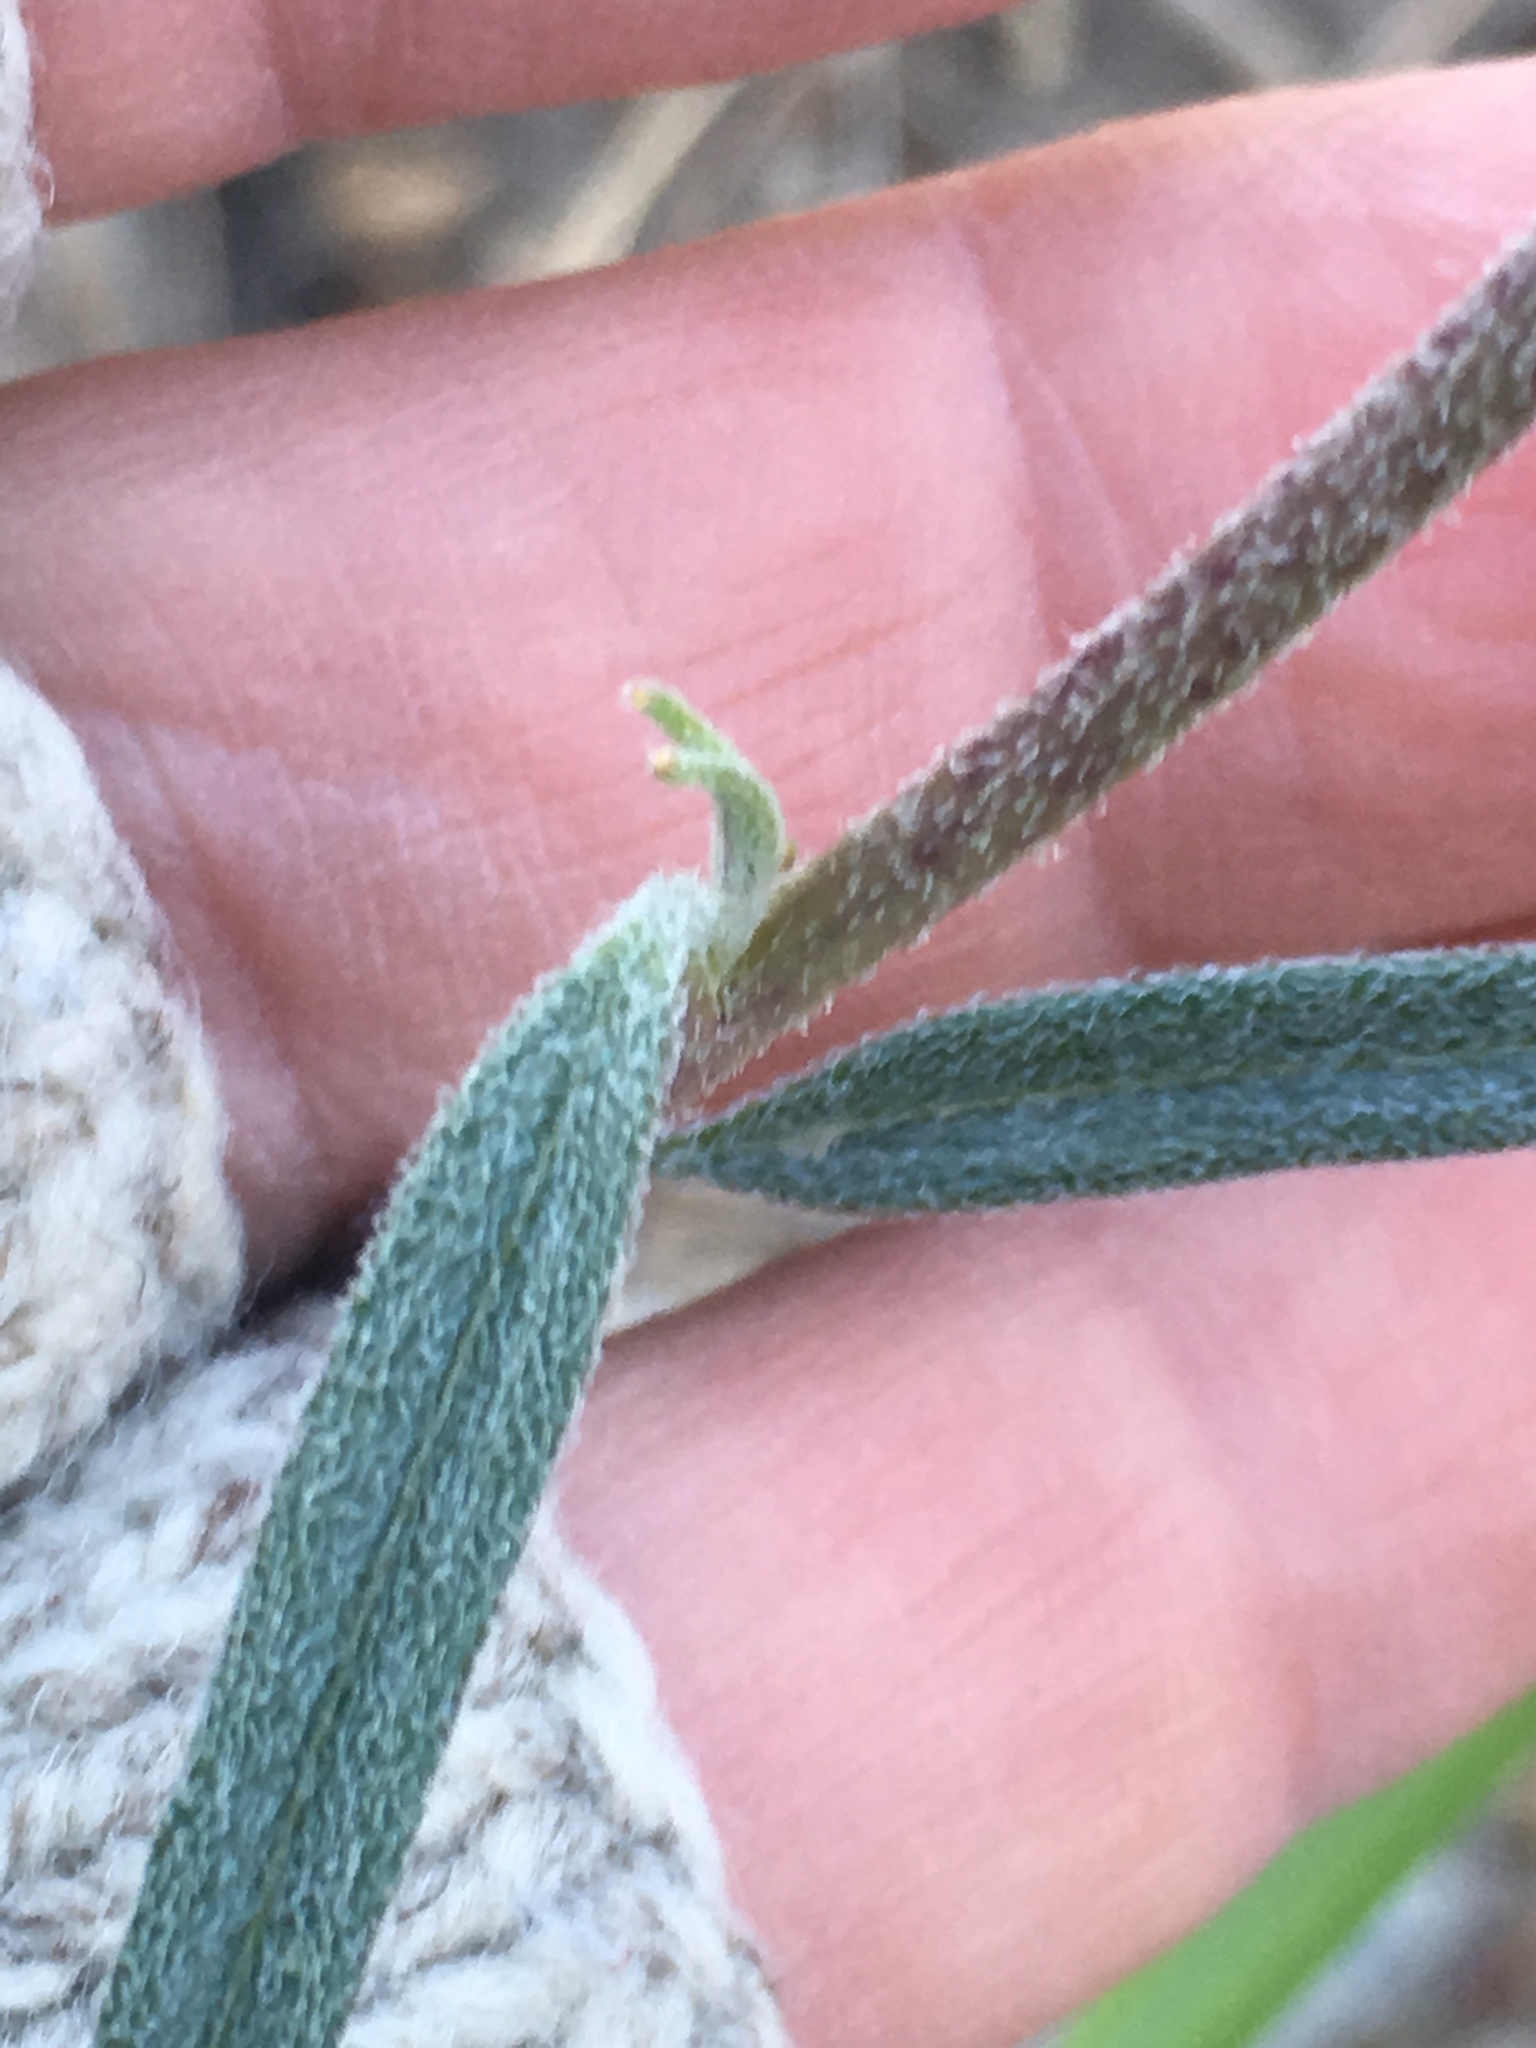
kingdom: Plantae
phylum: Tracheophyta
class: Magnoliopsida
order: Asterales
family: Asteraceae
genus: Palafoxia
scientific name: Palafoxia arida
